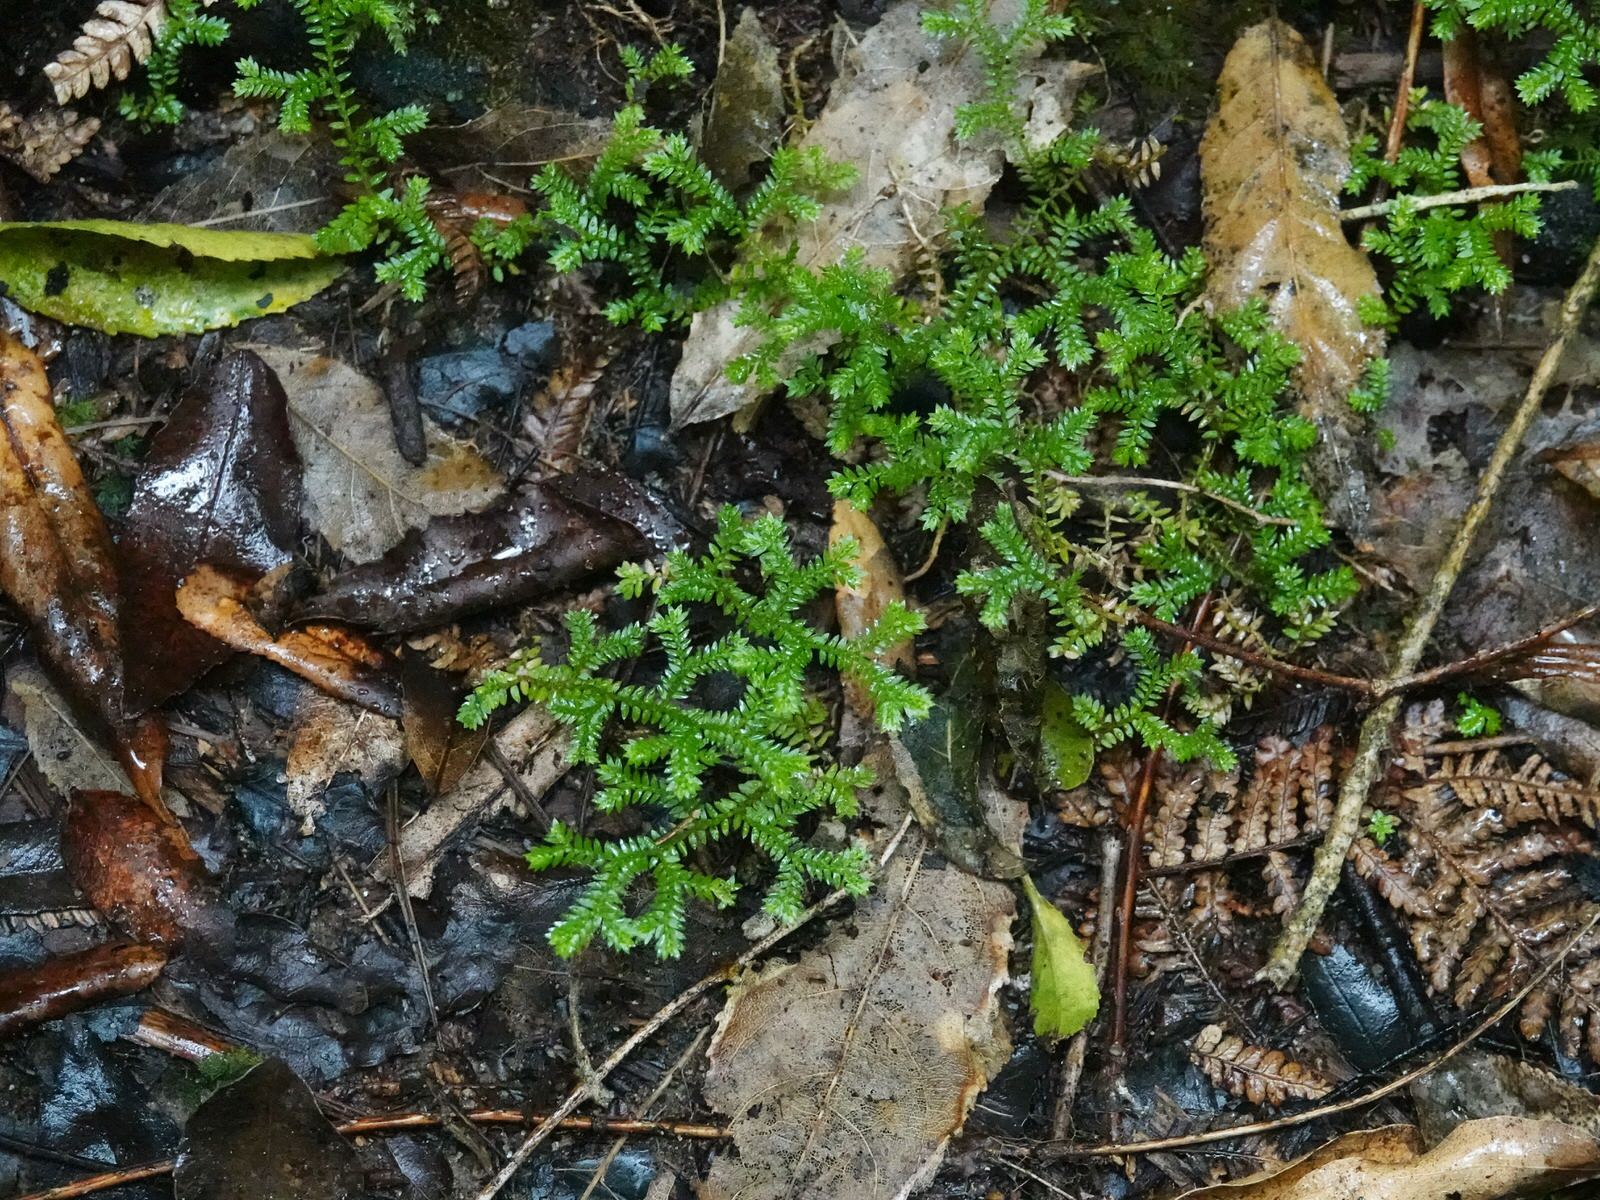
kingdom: Plantae
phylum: Tracheophyta
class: Lycopodiopsida
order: Selaginellales
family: Selaginellaceae
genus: Selaginella
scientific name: Selaginella kraussiana
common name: Krauss' spikemoss
